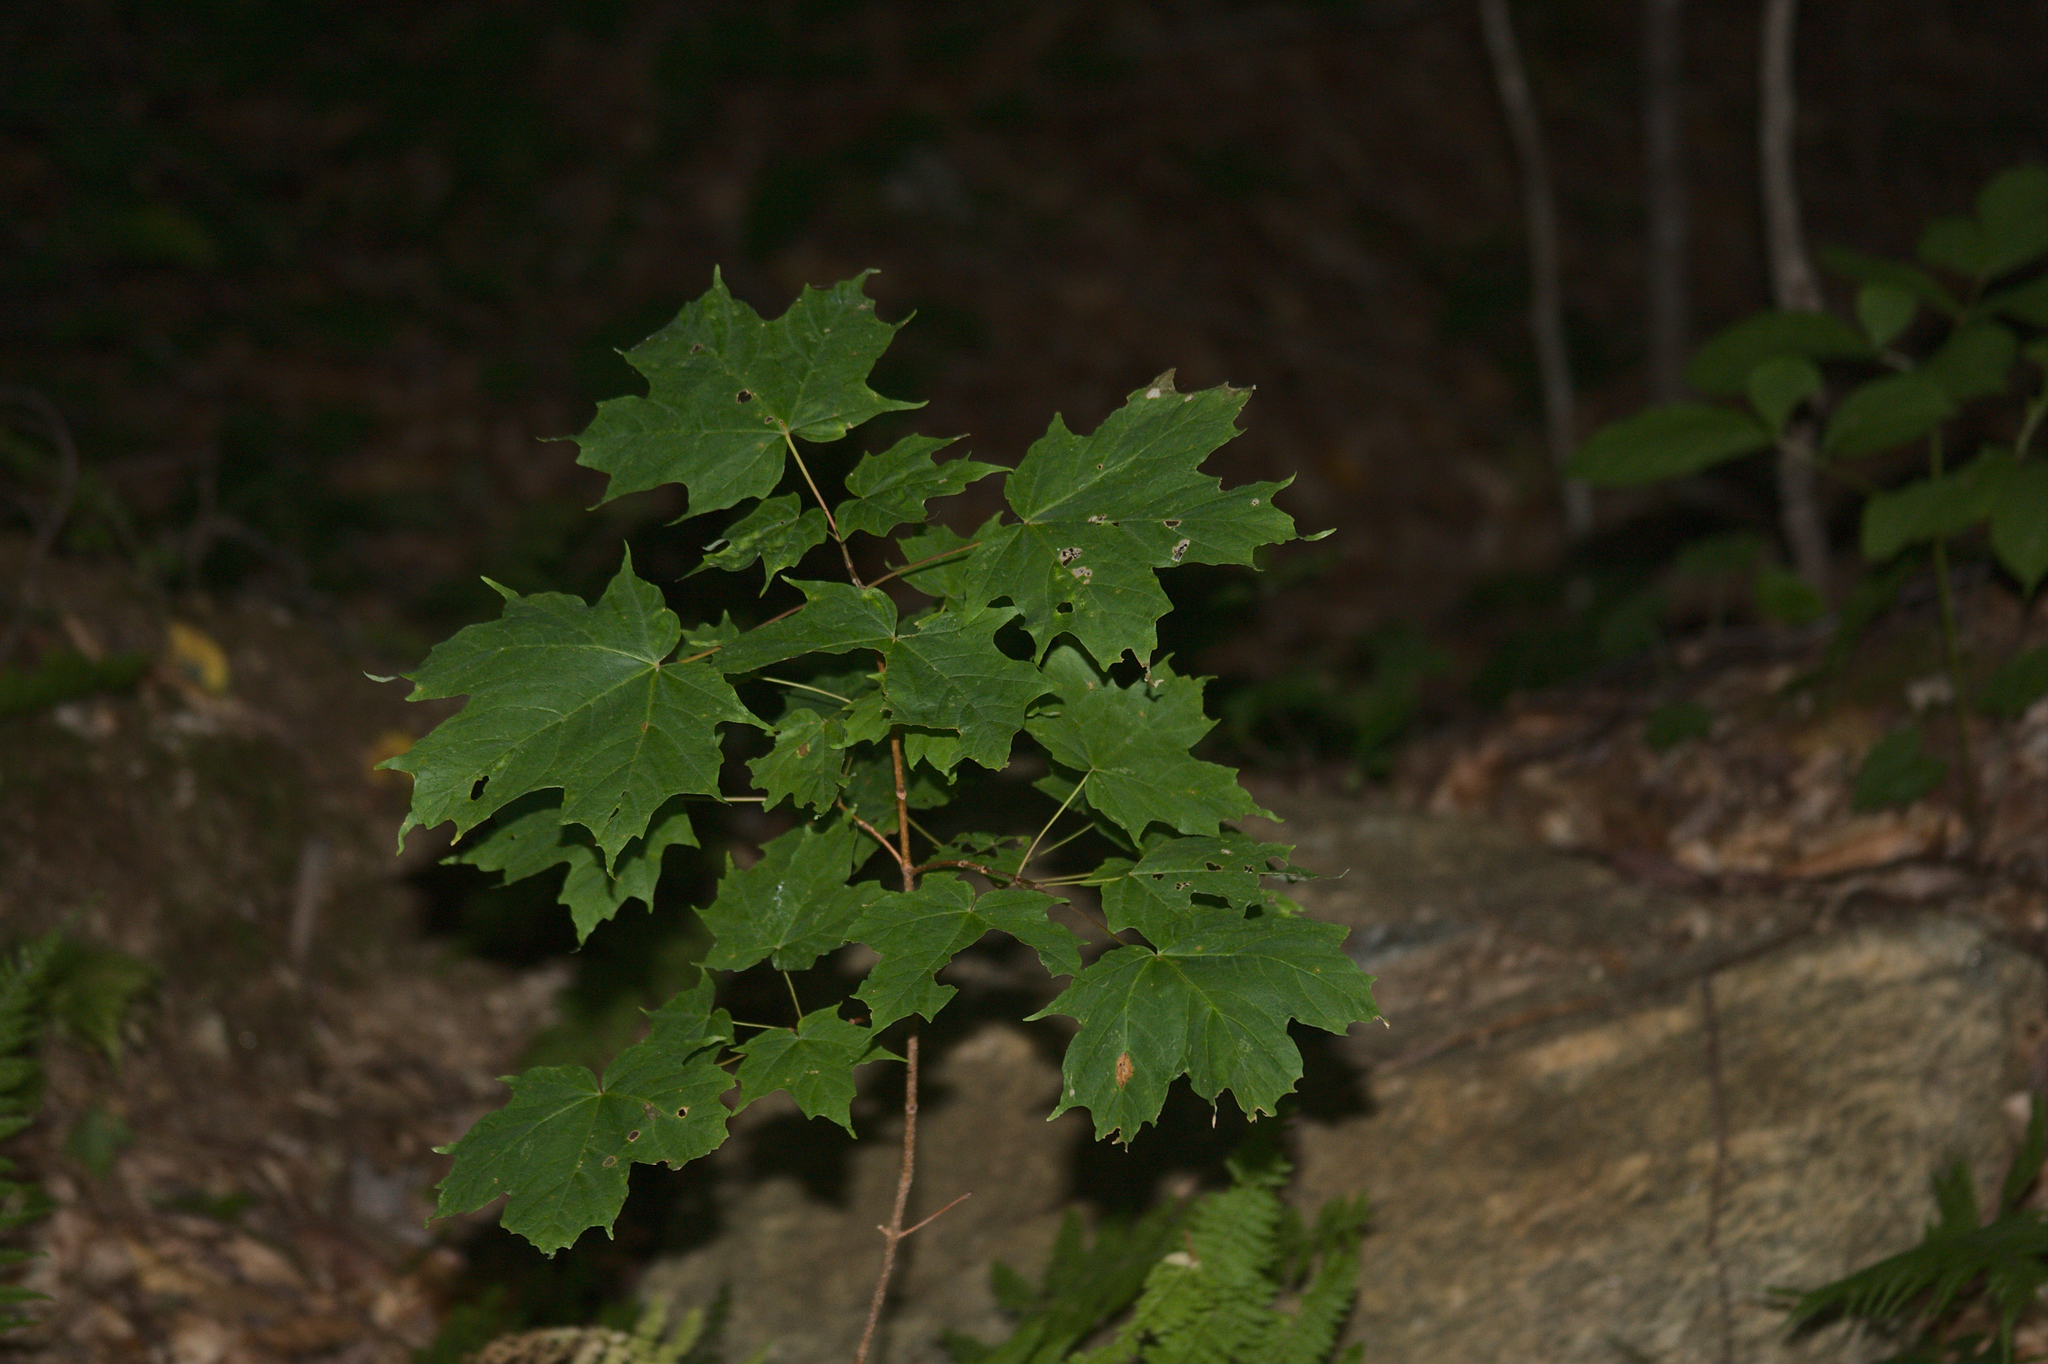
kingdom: Plantae
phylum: Tracheophyta
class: Magnoliopsida
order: Sapindales
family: Sapindaceae
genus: Acer
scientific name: Acer saccharum
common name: Sugar maple
